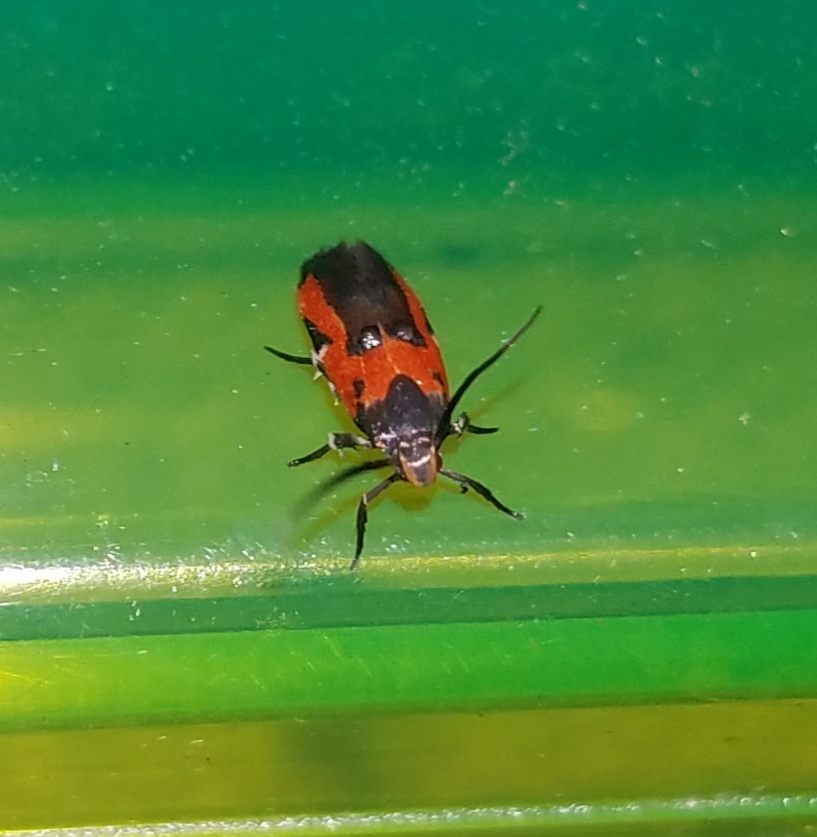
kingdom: Animalia
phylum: Arthropoda
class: Insecta
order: Lepidoptera
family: Cosmopterigidae
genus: Euclemensia
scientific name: Euclemensia bassettella
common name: Kermes scale moth
